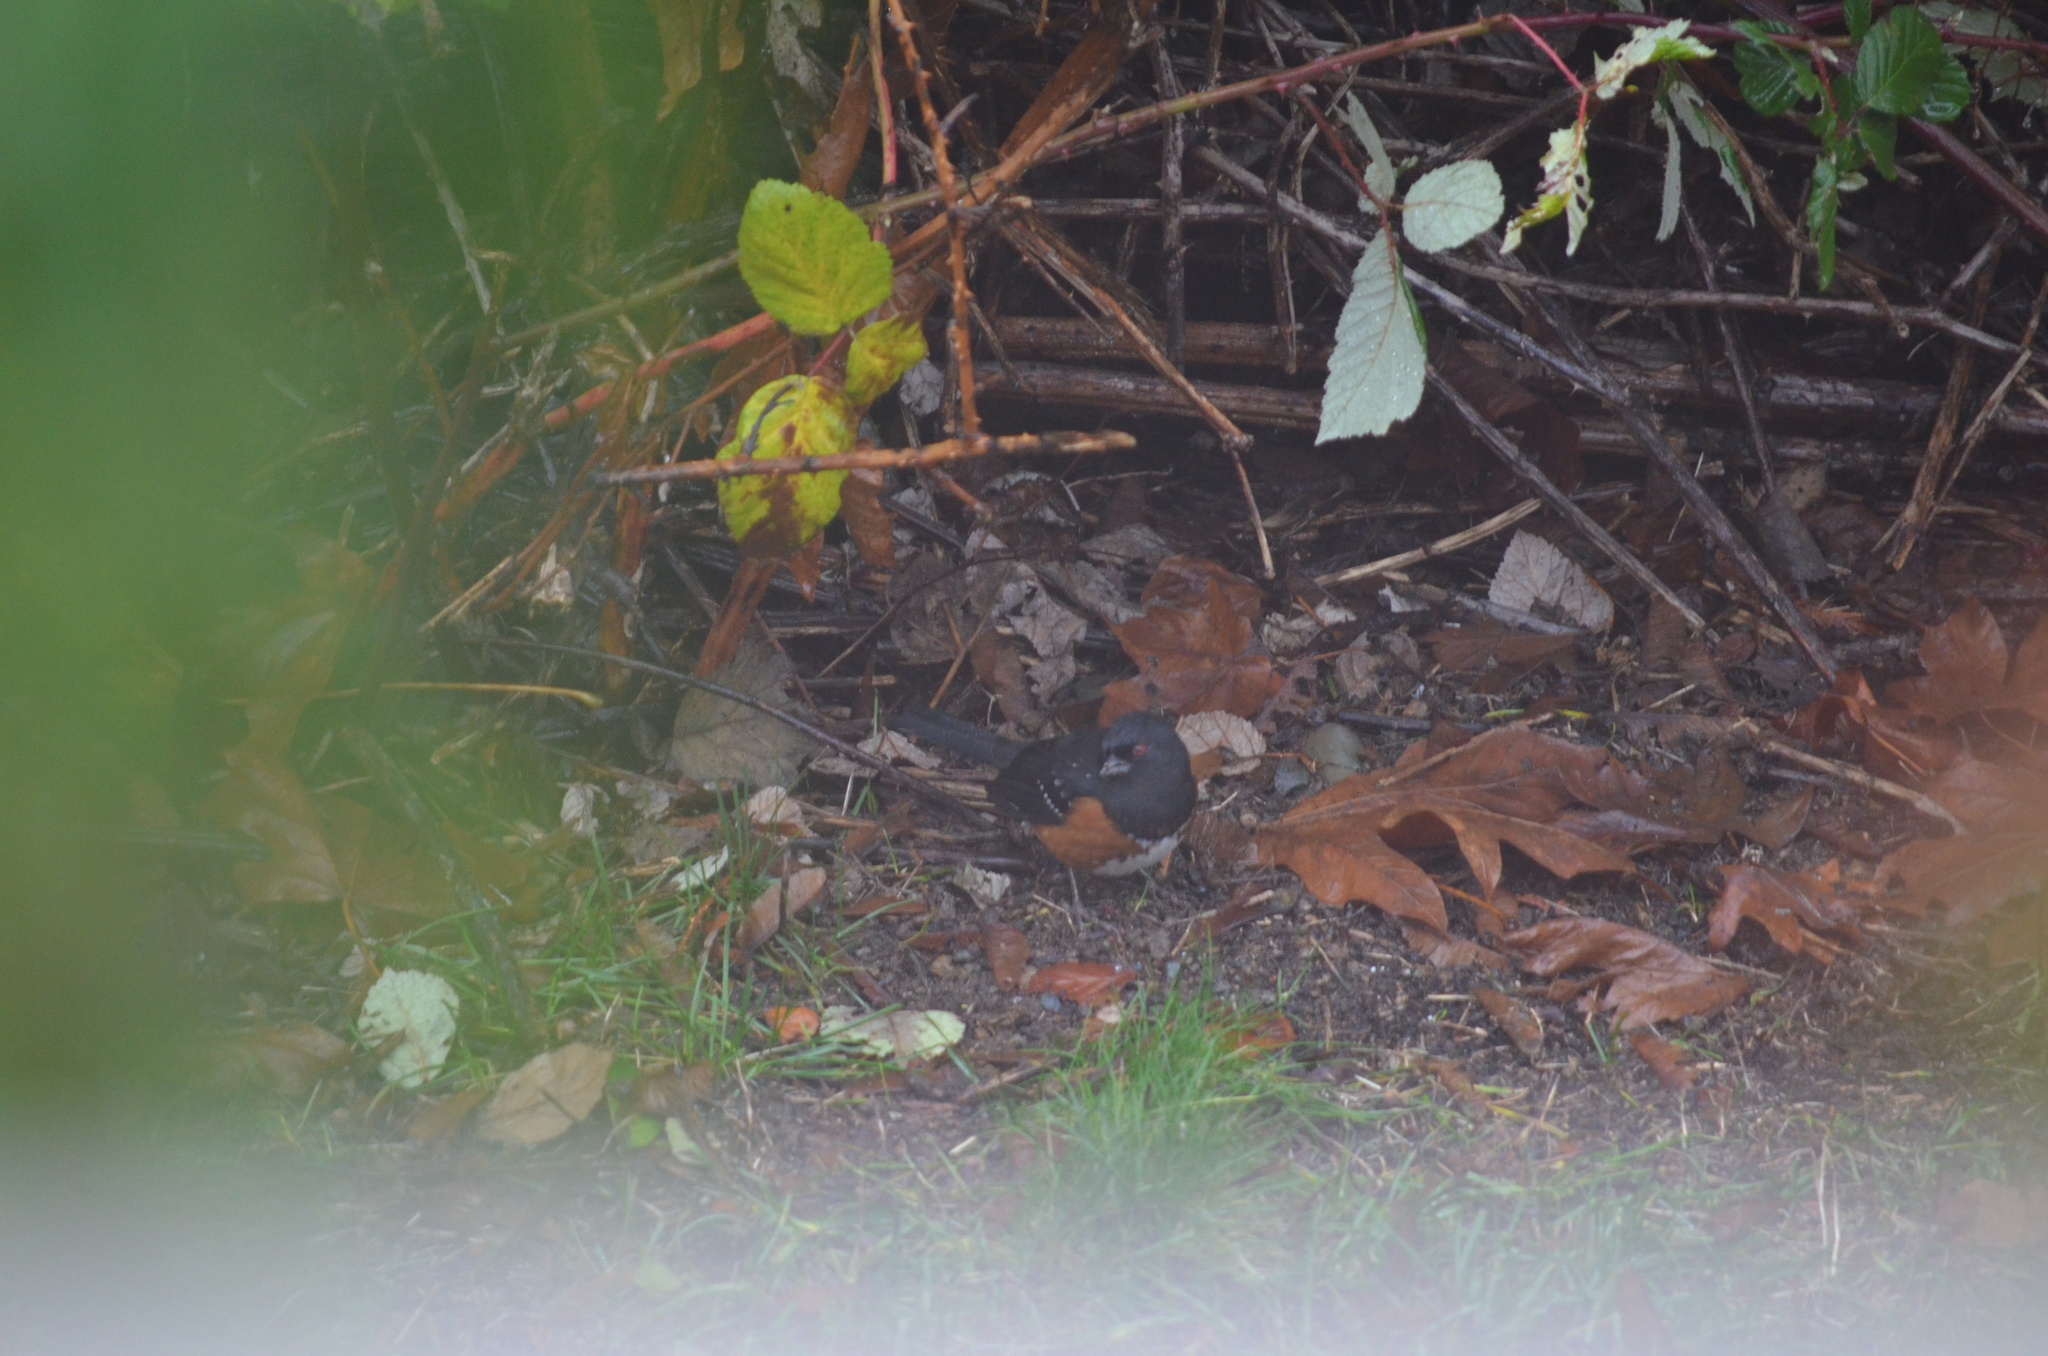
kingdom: Animalia
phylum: Chordata
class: Aves
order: Passeriformes
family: Passerellidae
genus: Pipilo
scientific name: Pipilo maculatus
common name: Spotted towhee
